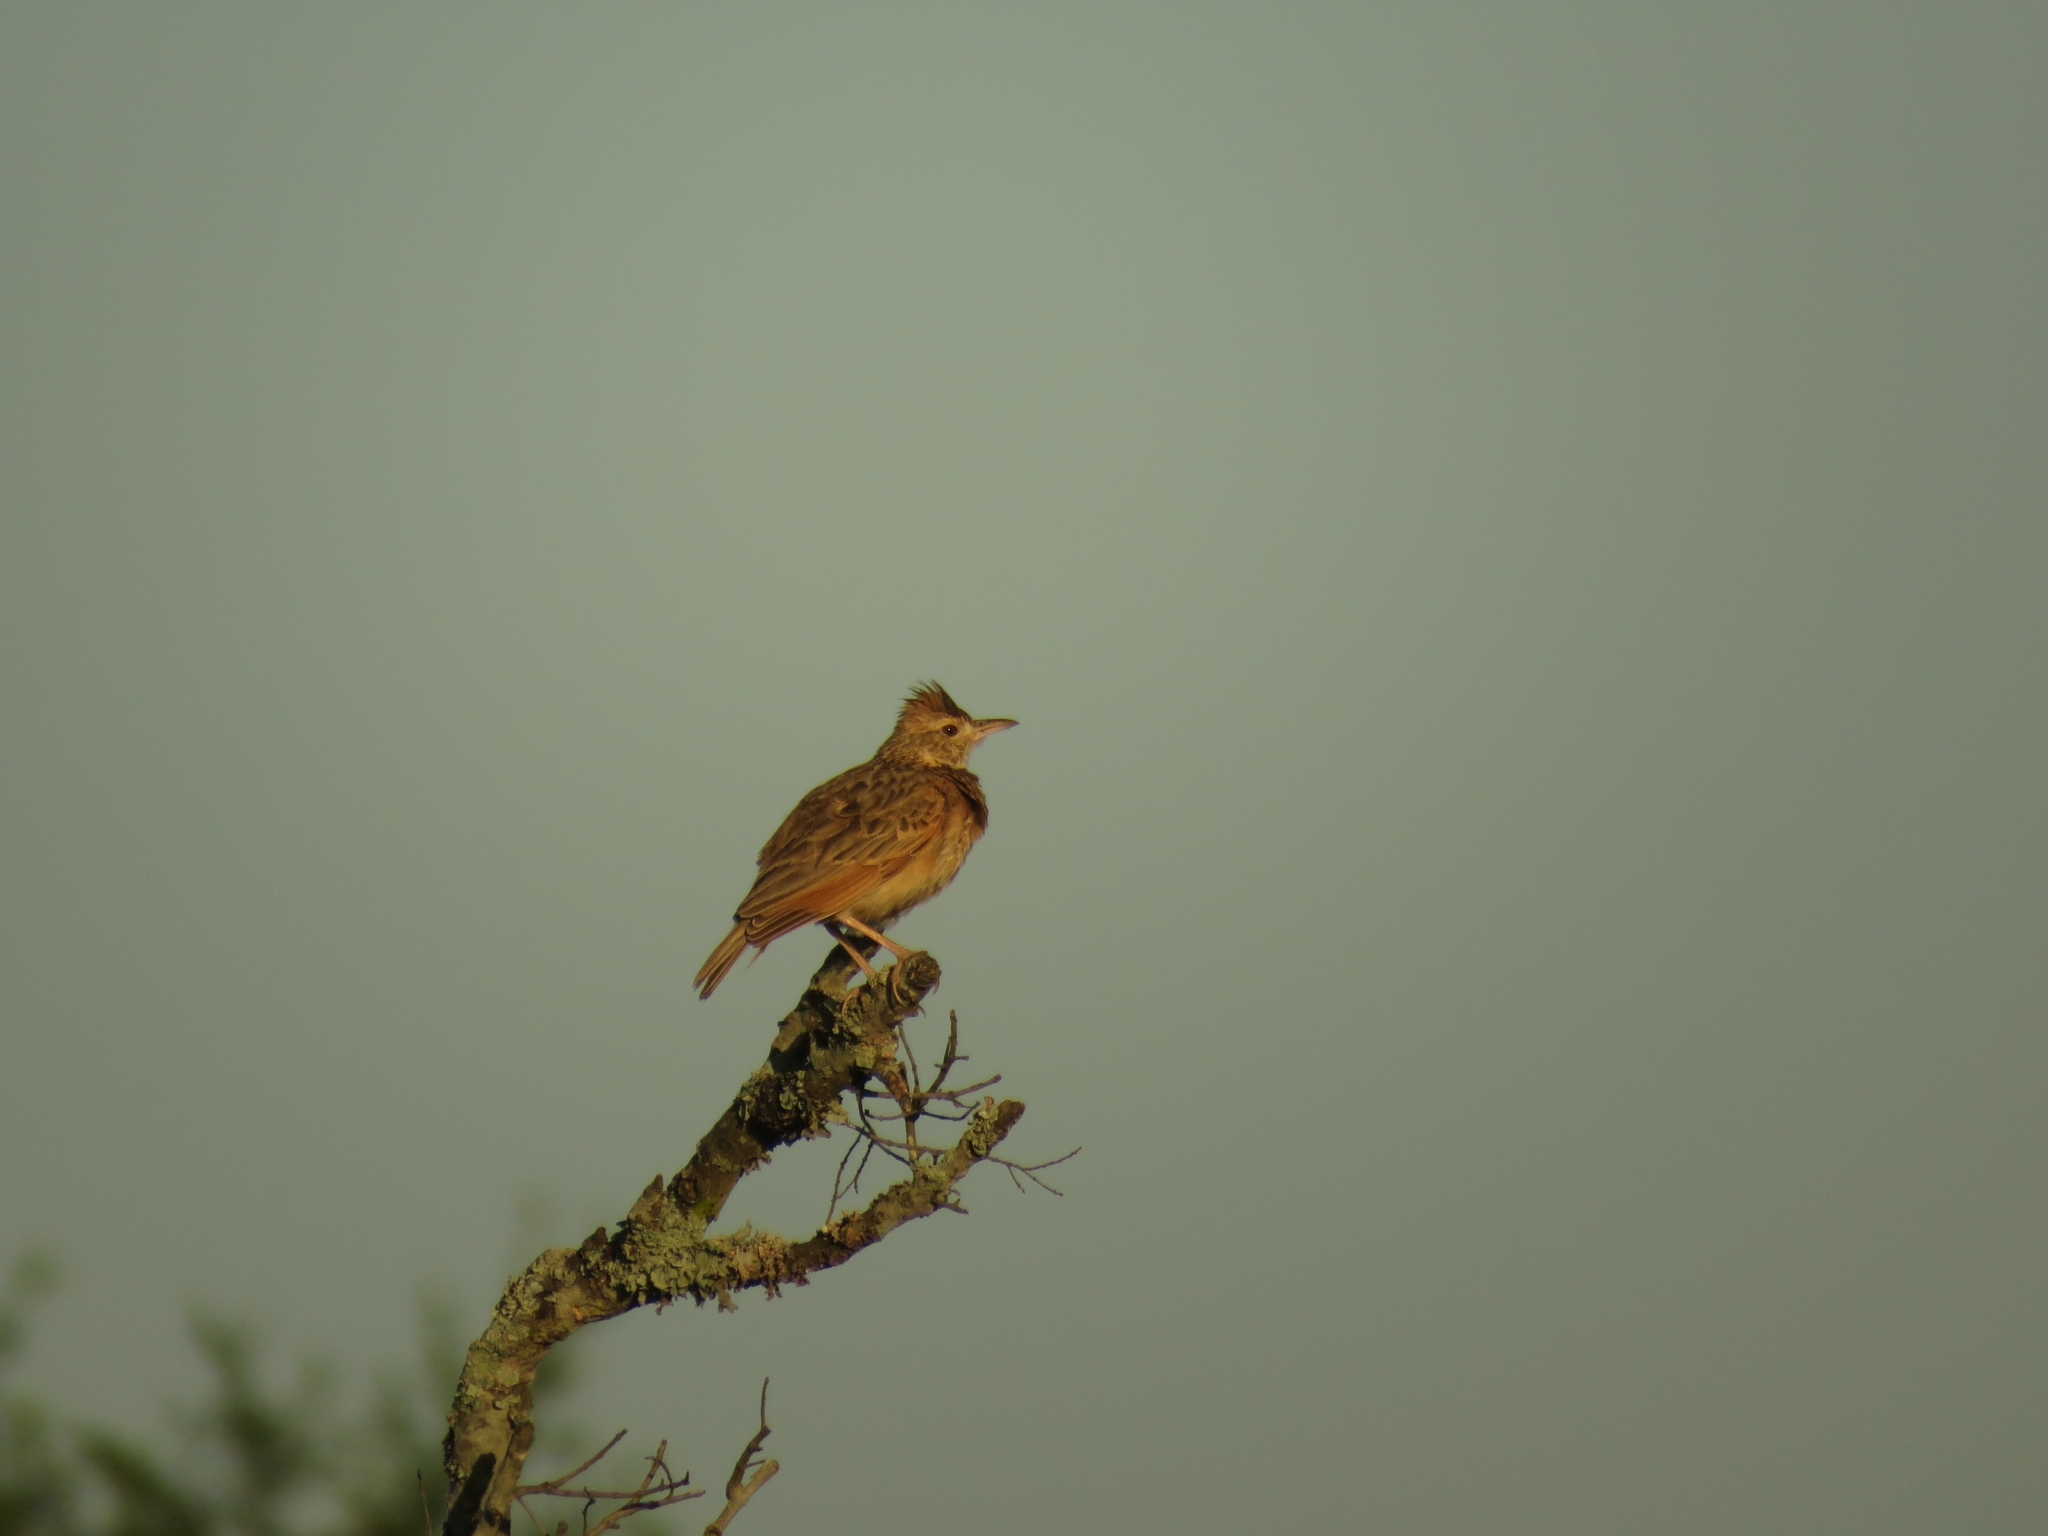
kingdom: Animalia
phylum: Chordata
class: Aves
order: Passeriformes
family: Alaudidae
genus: Mirafra
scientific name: Mirafra africana
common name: Rufous-naped lark
